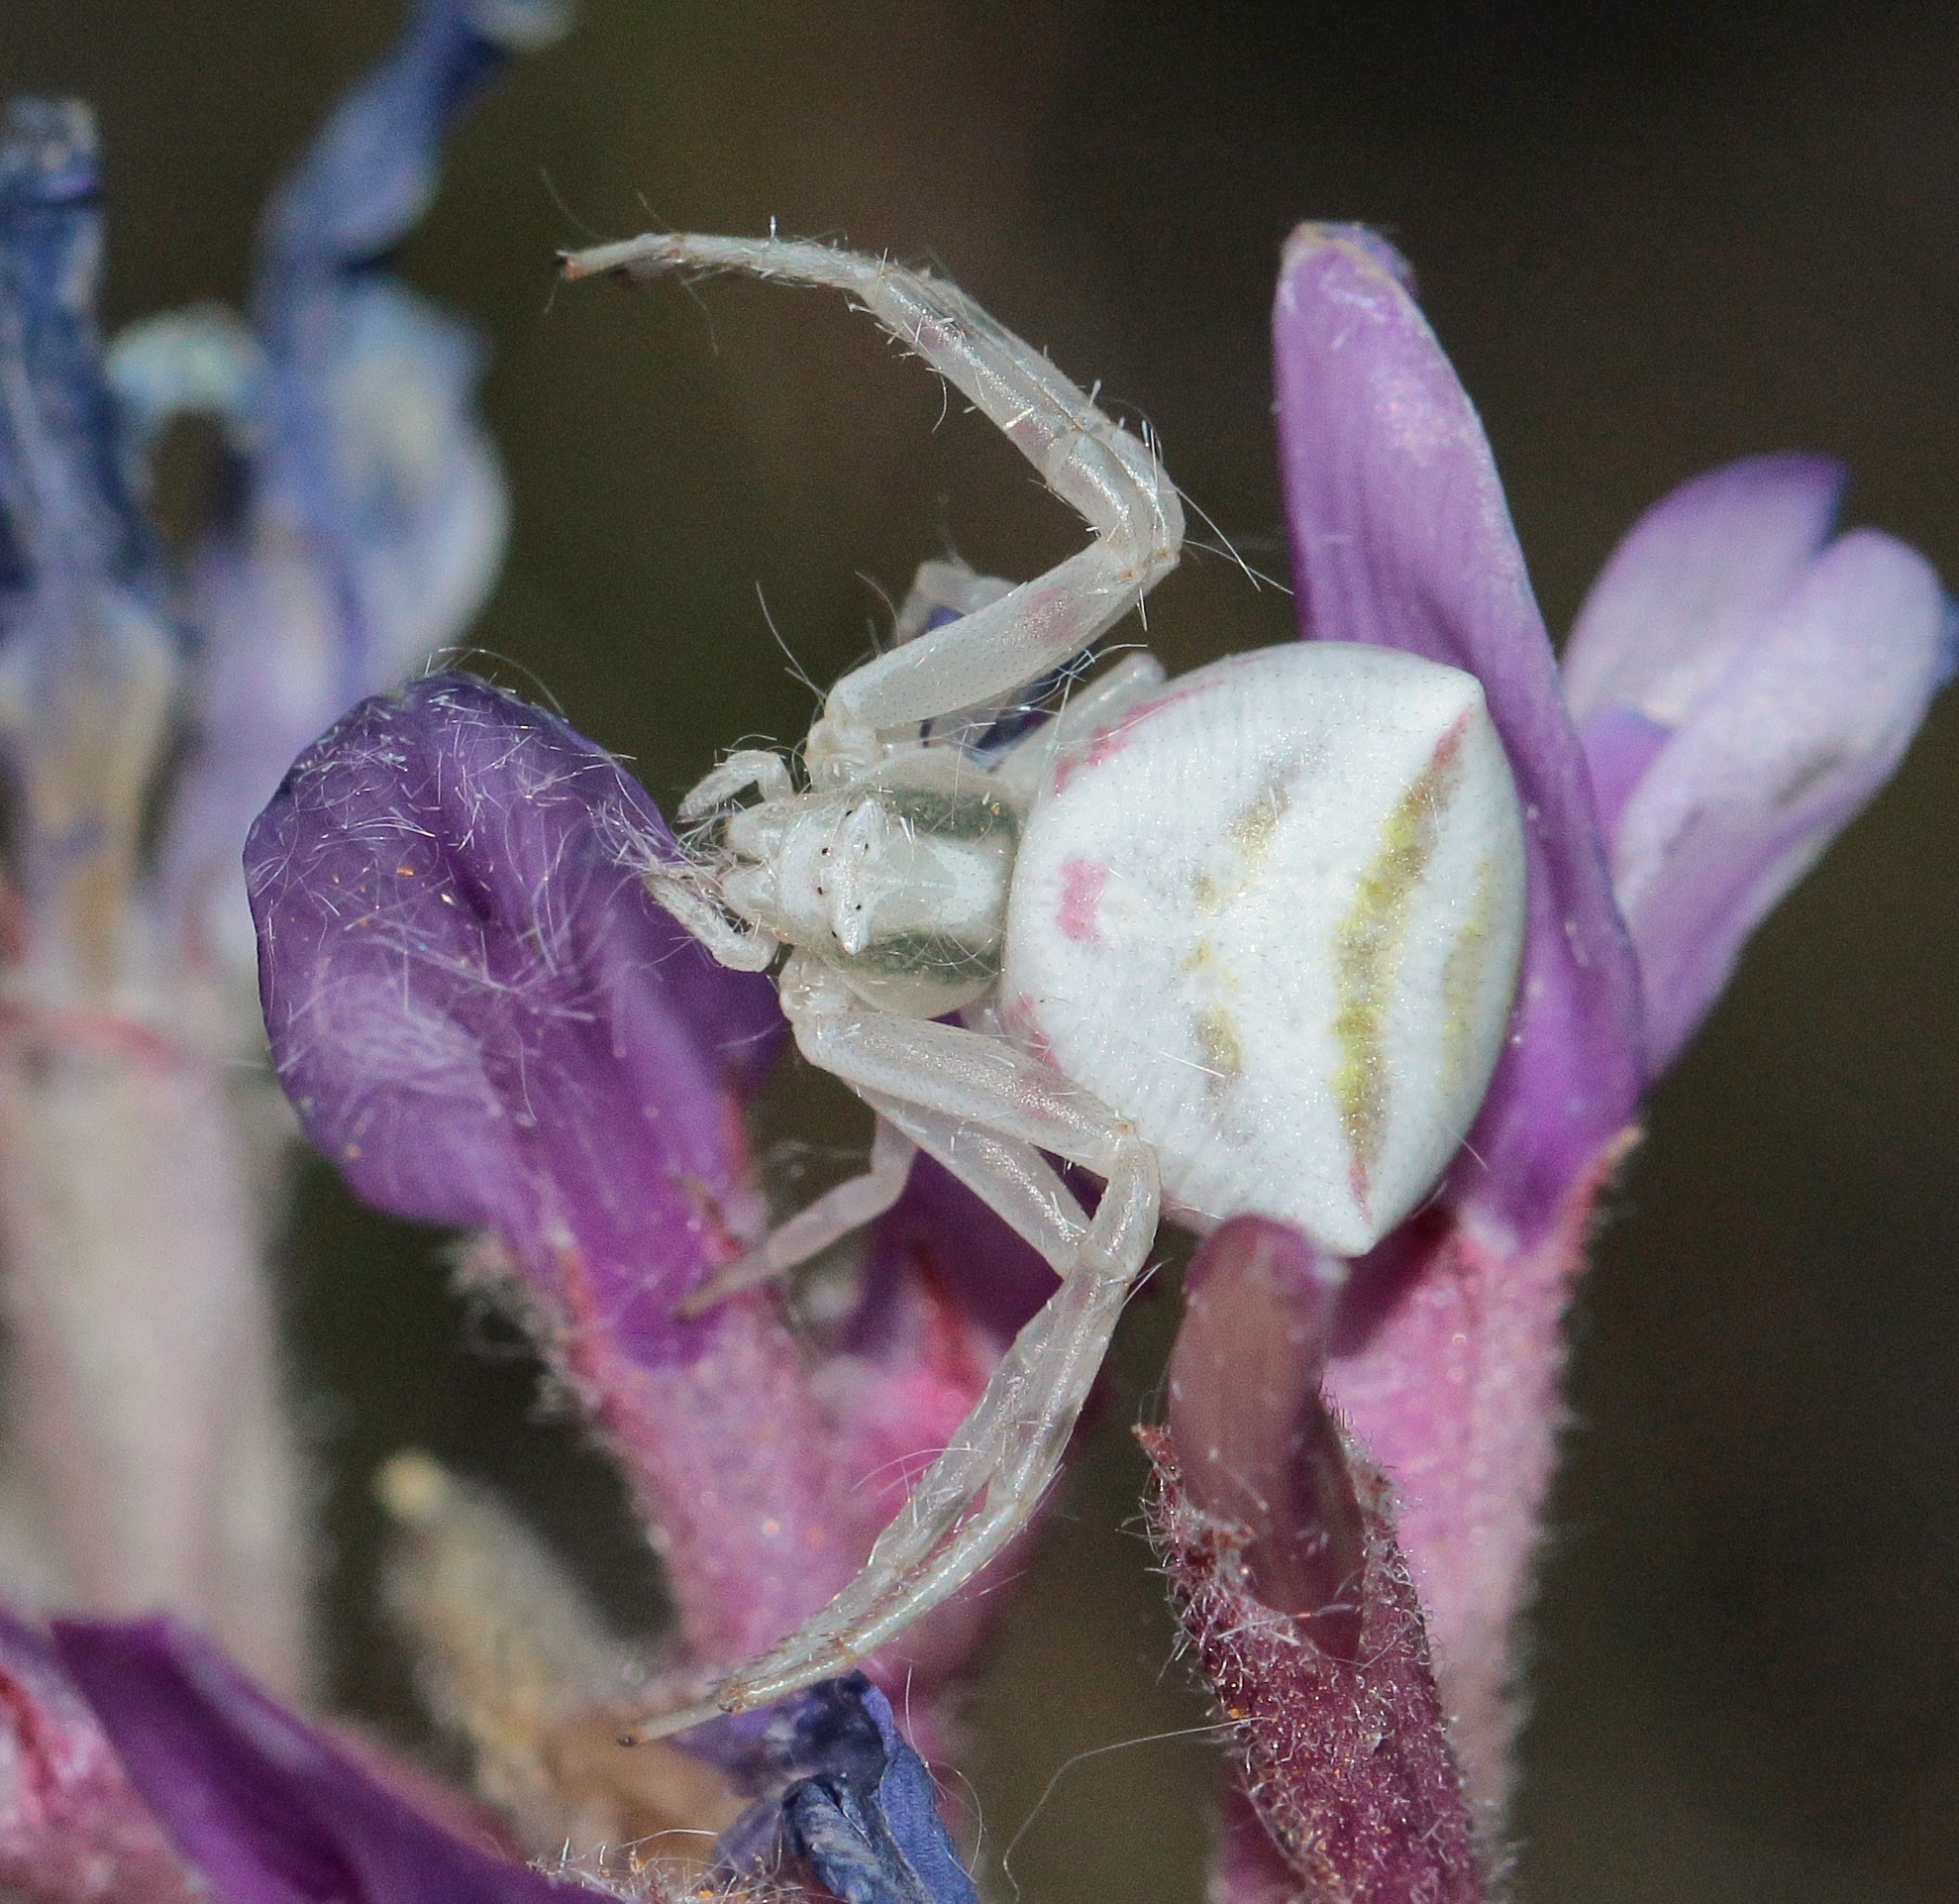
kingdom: Animalia
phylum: Arthropoda
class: Arachnida
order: Araneae
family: Thomisidae
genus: Thomisus
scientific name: Thomisus onustus
